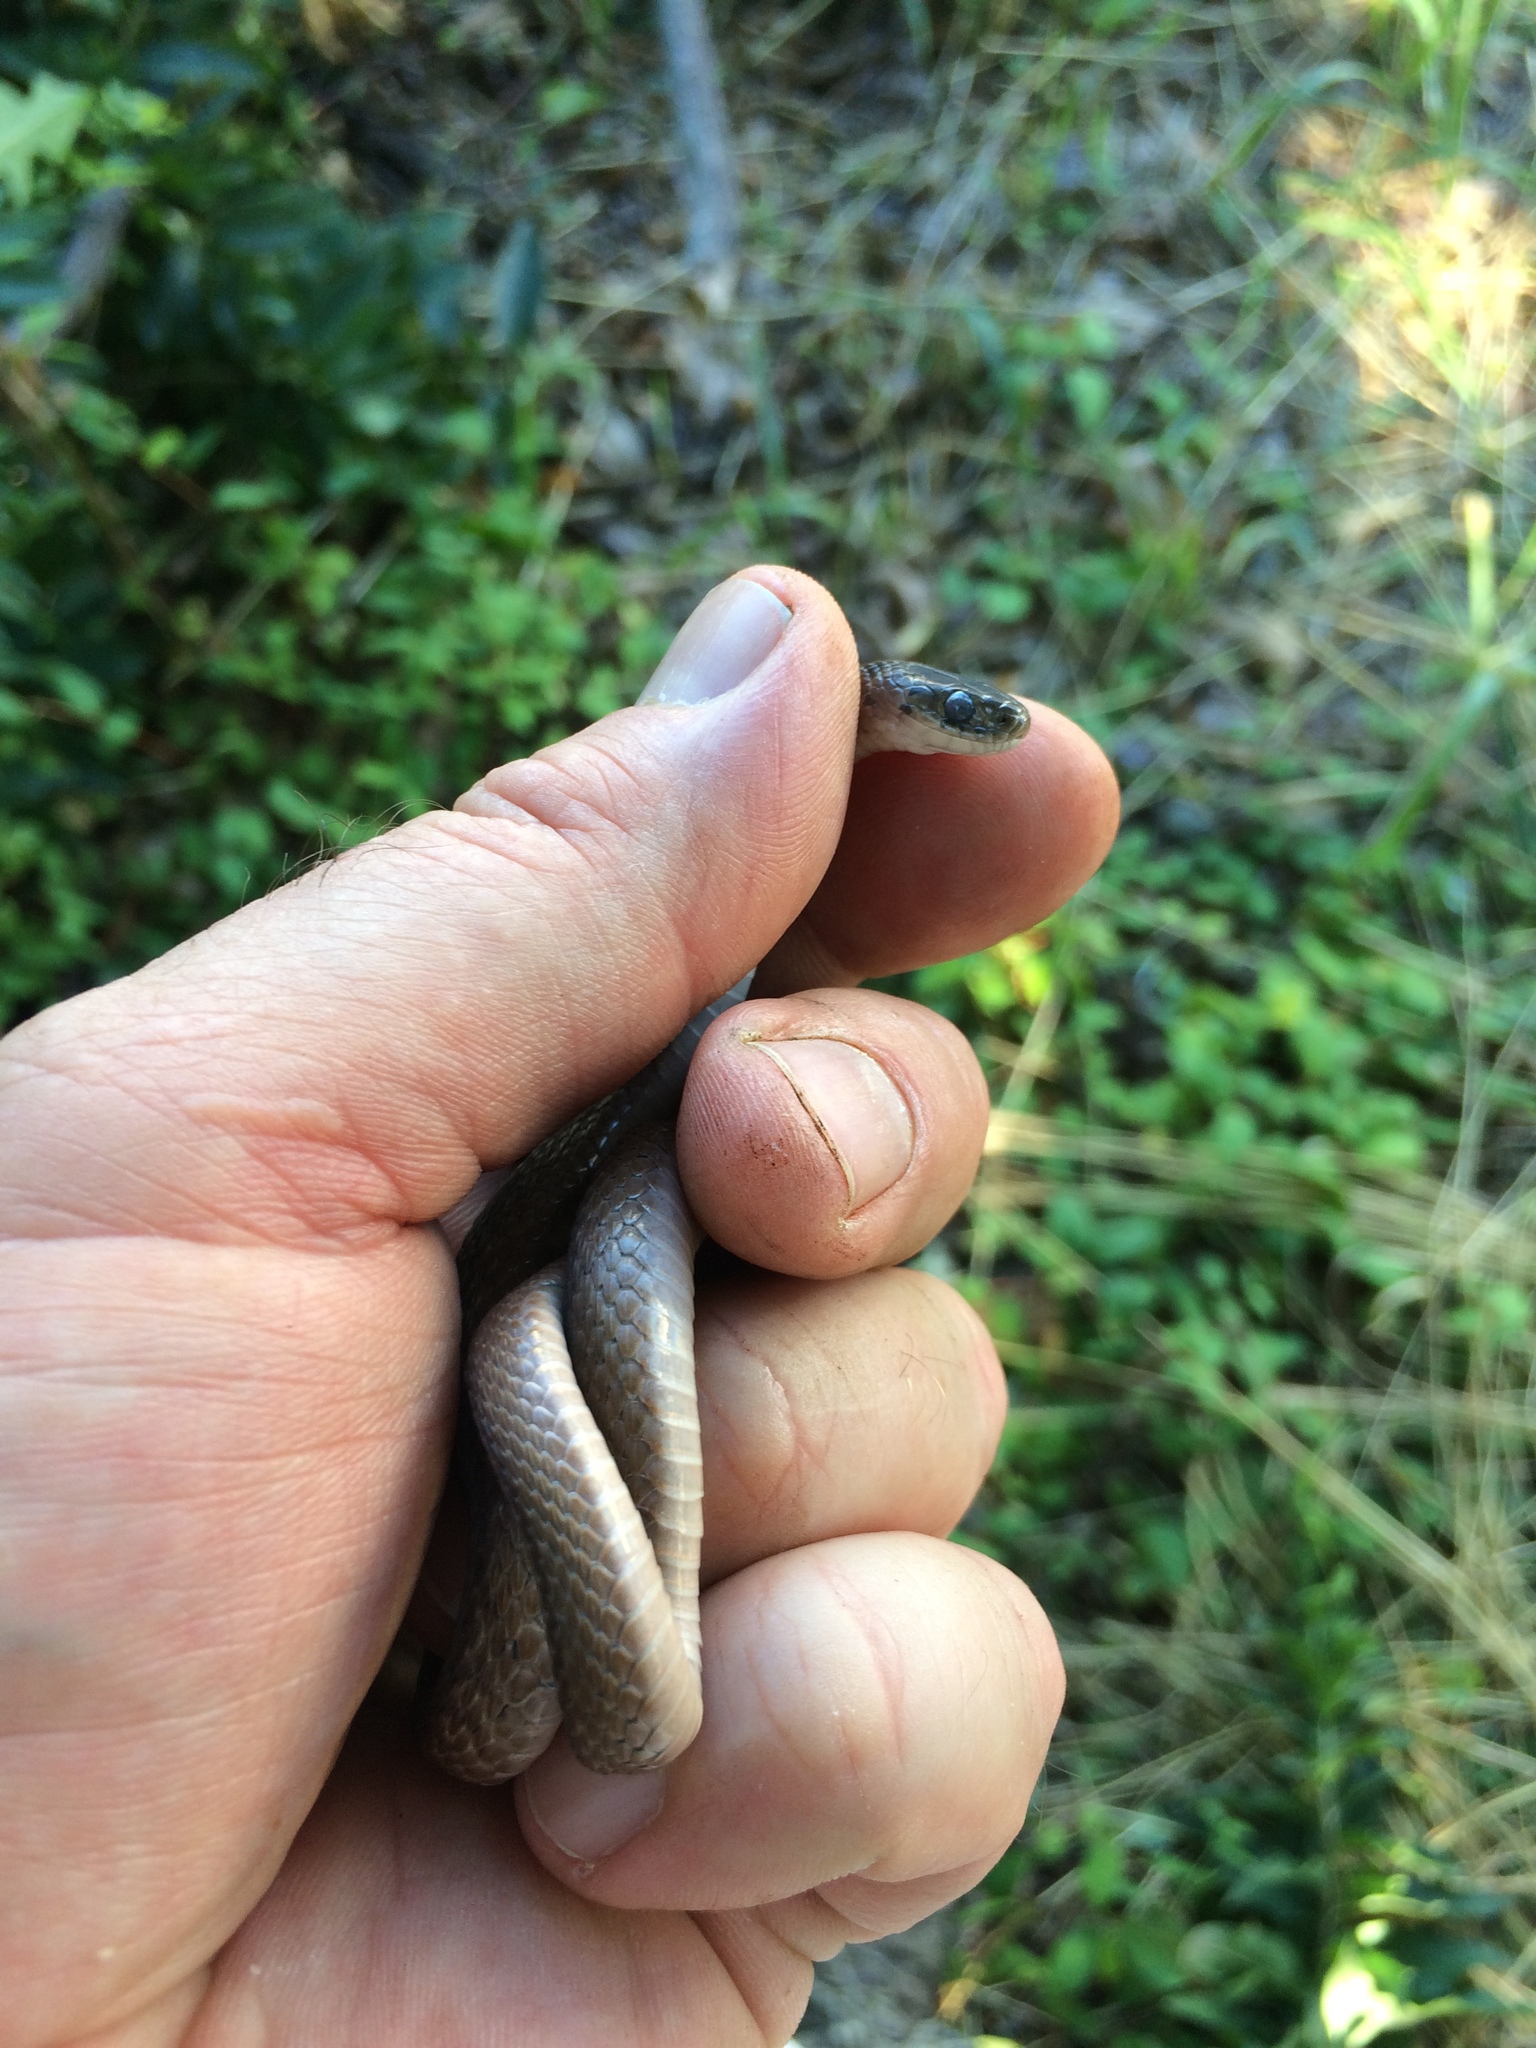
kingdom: Animalia
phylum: Chordata
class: Squamata
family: Colubridae
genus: Storeria
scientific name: Storeria dekayi
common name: (dekay’s) brown snake
